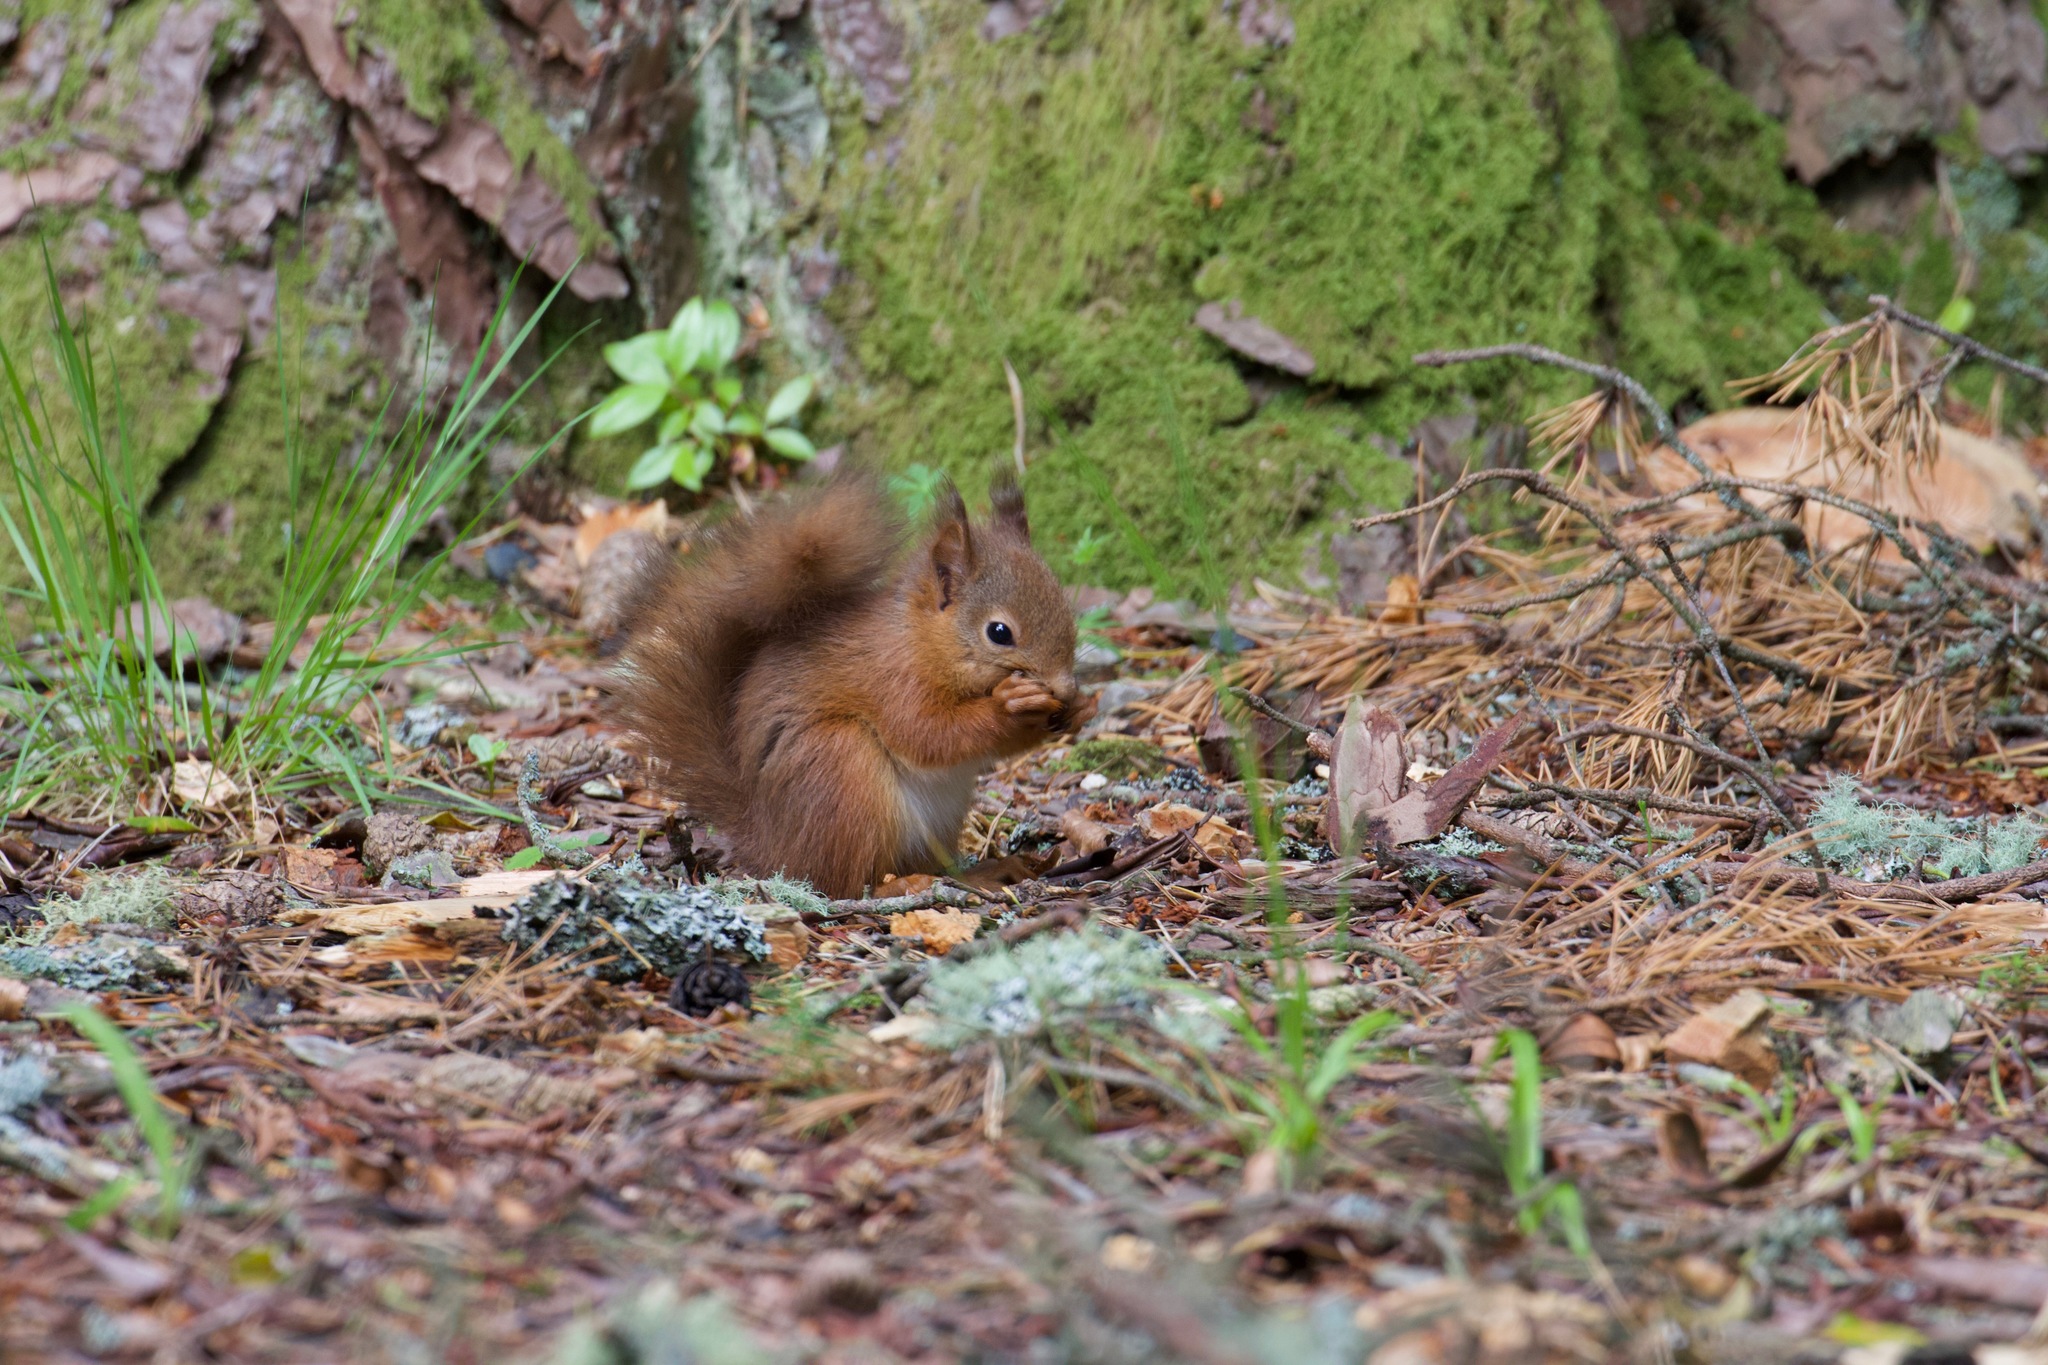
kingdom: Animalia
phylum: Chordata
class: Mammalia
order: Rodentia
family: Sciuridae
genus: Sciurus
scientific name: Sciurus vulgaris
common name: Eurasian red squirrel
